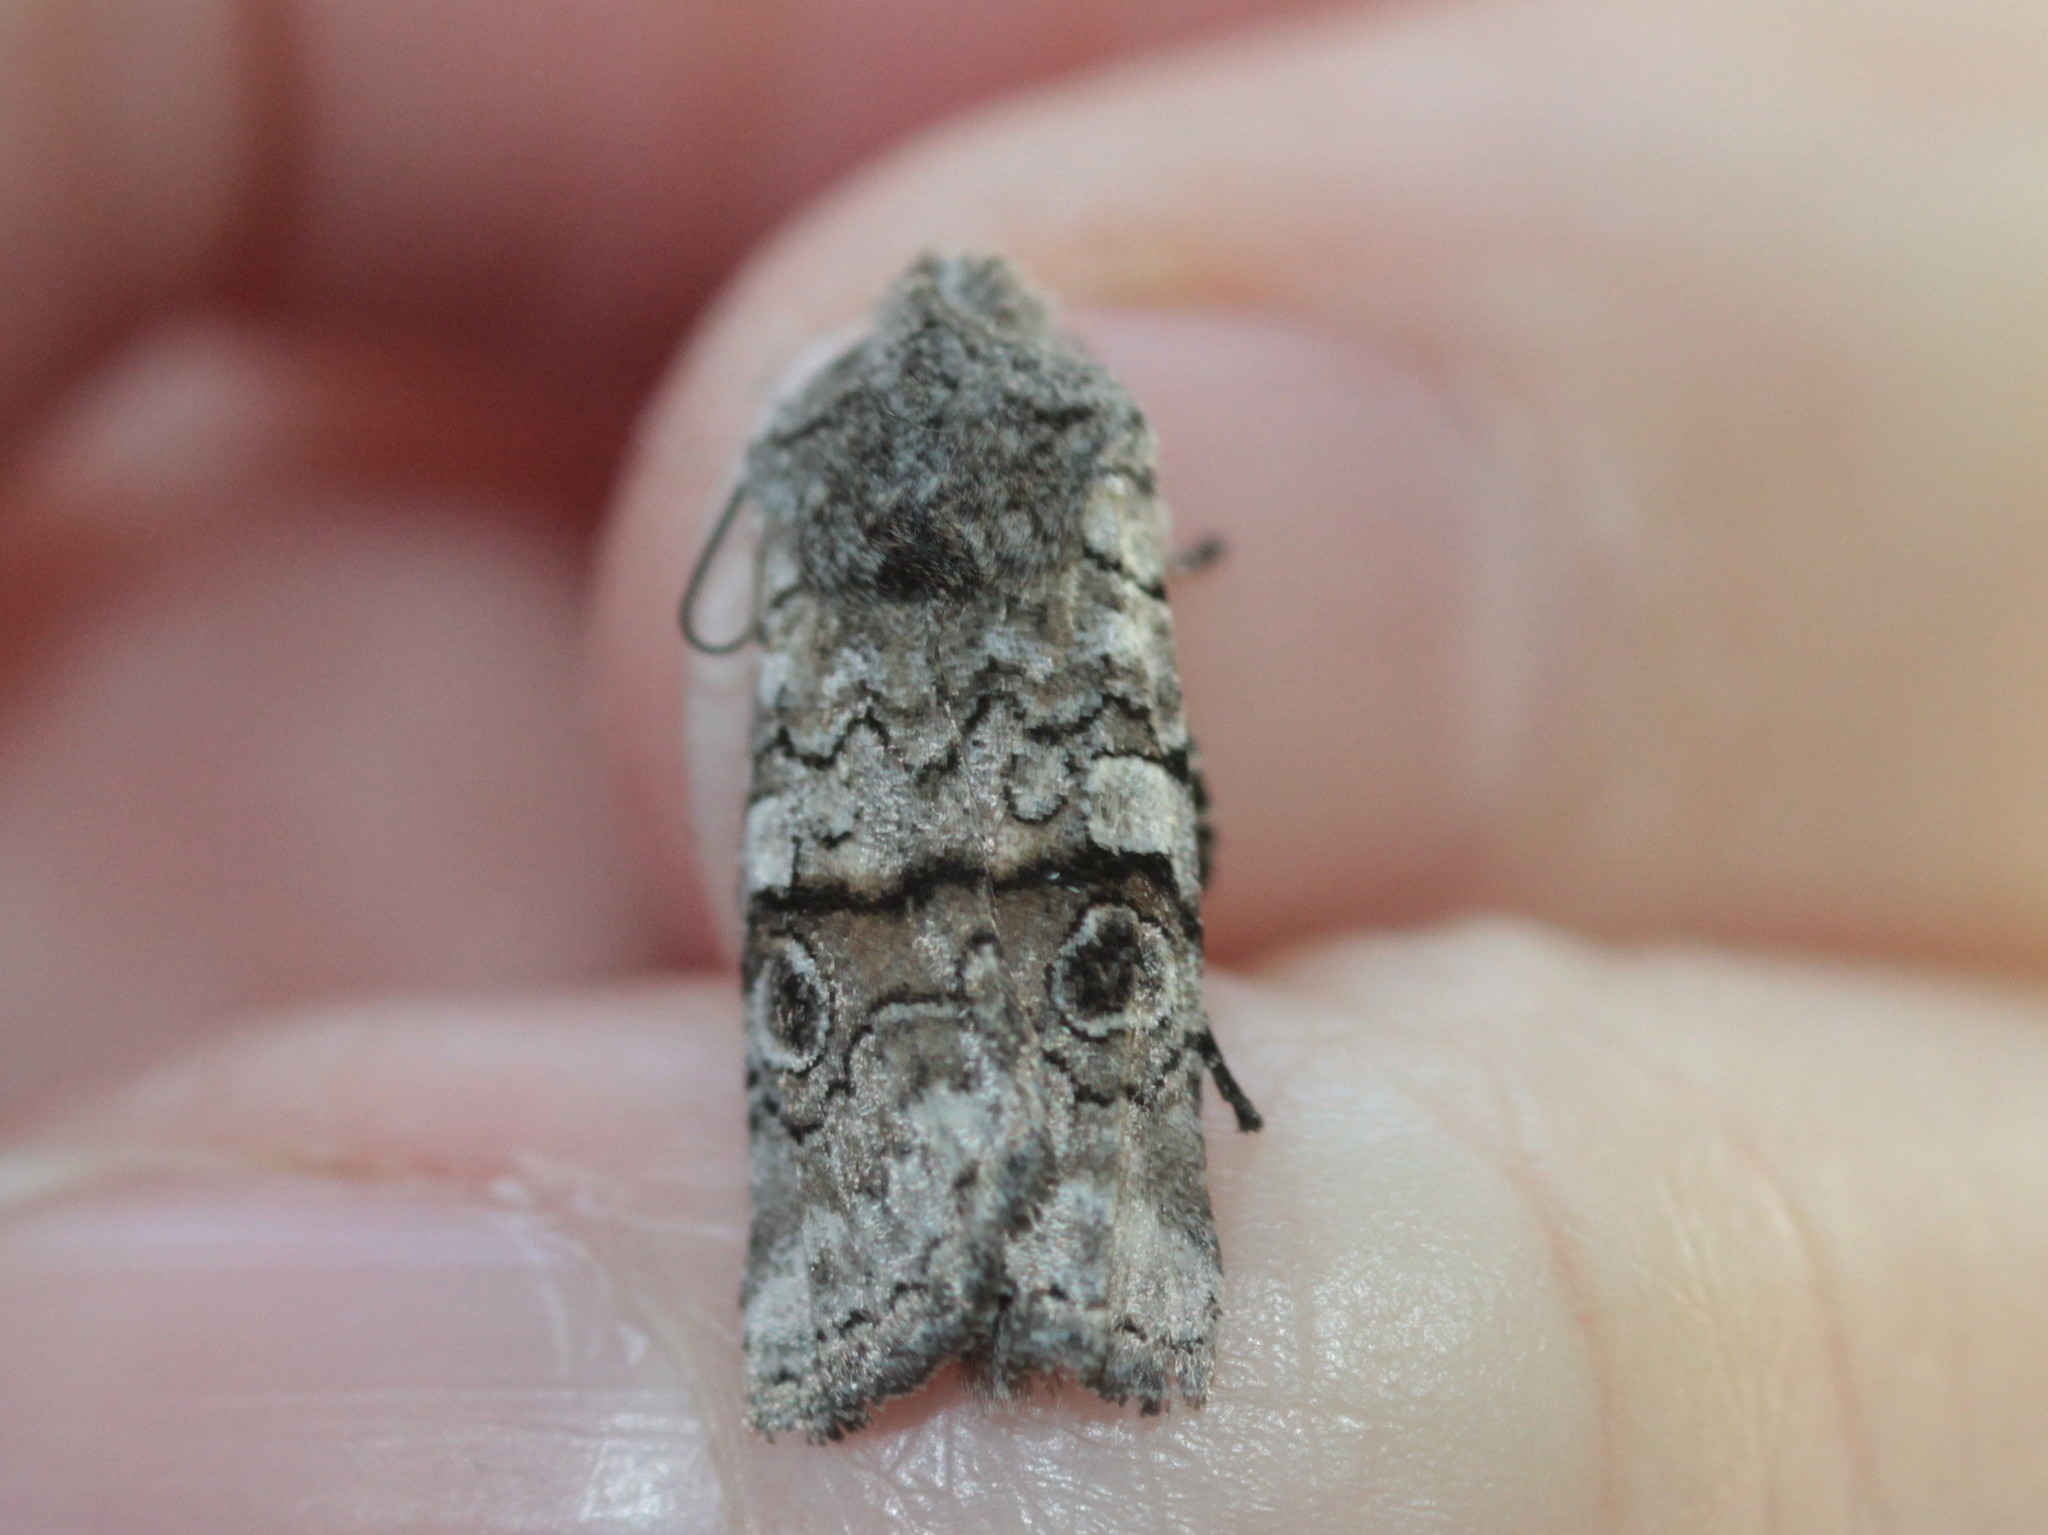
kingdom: Animalia
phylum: Arthropoda
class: Insecta
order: Lepidoptera
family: Noctuidae
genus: Litholomia
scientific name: Litholomia napaea
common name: False pinion moth
